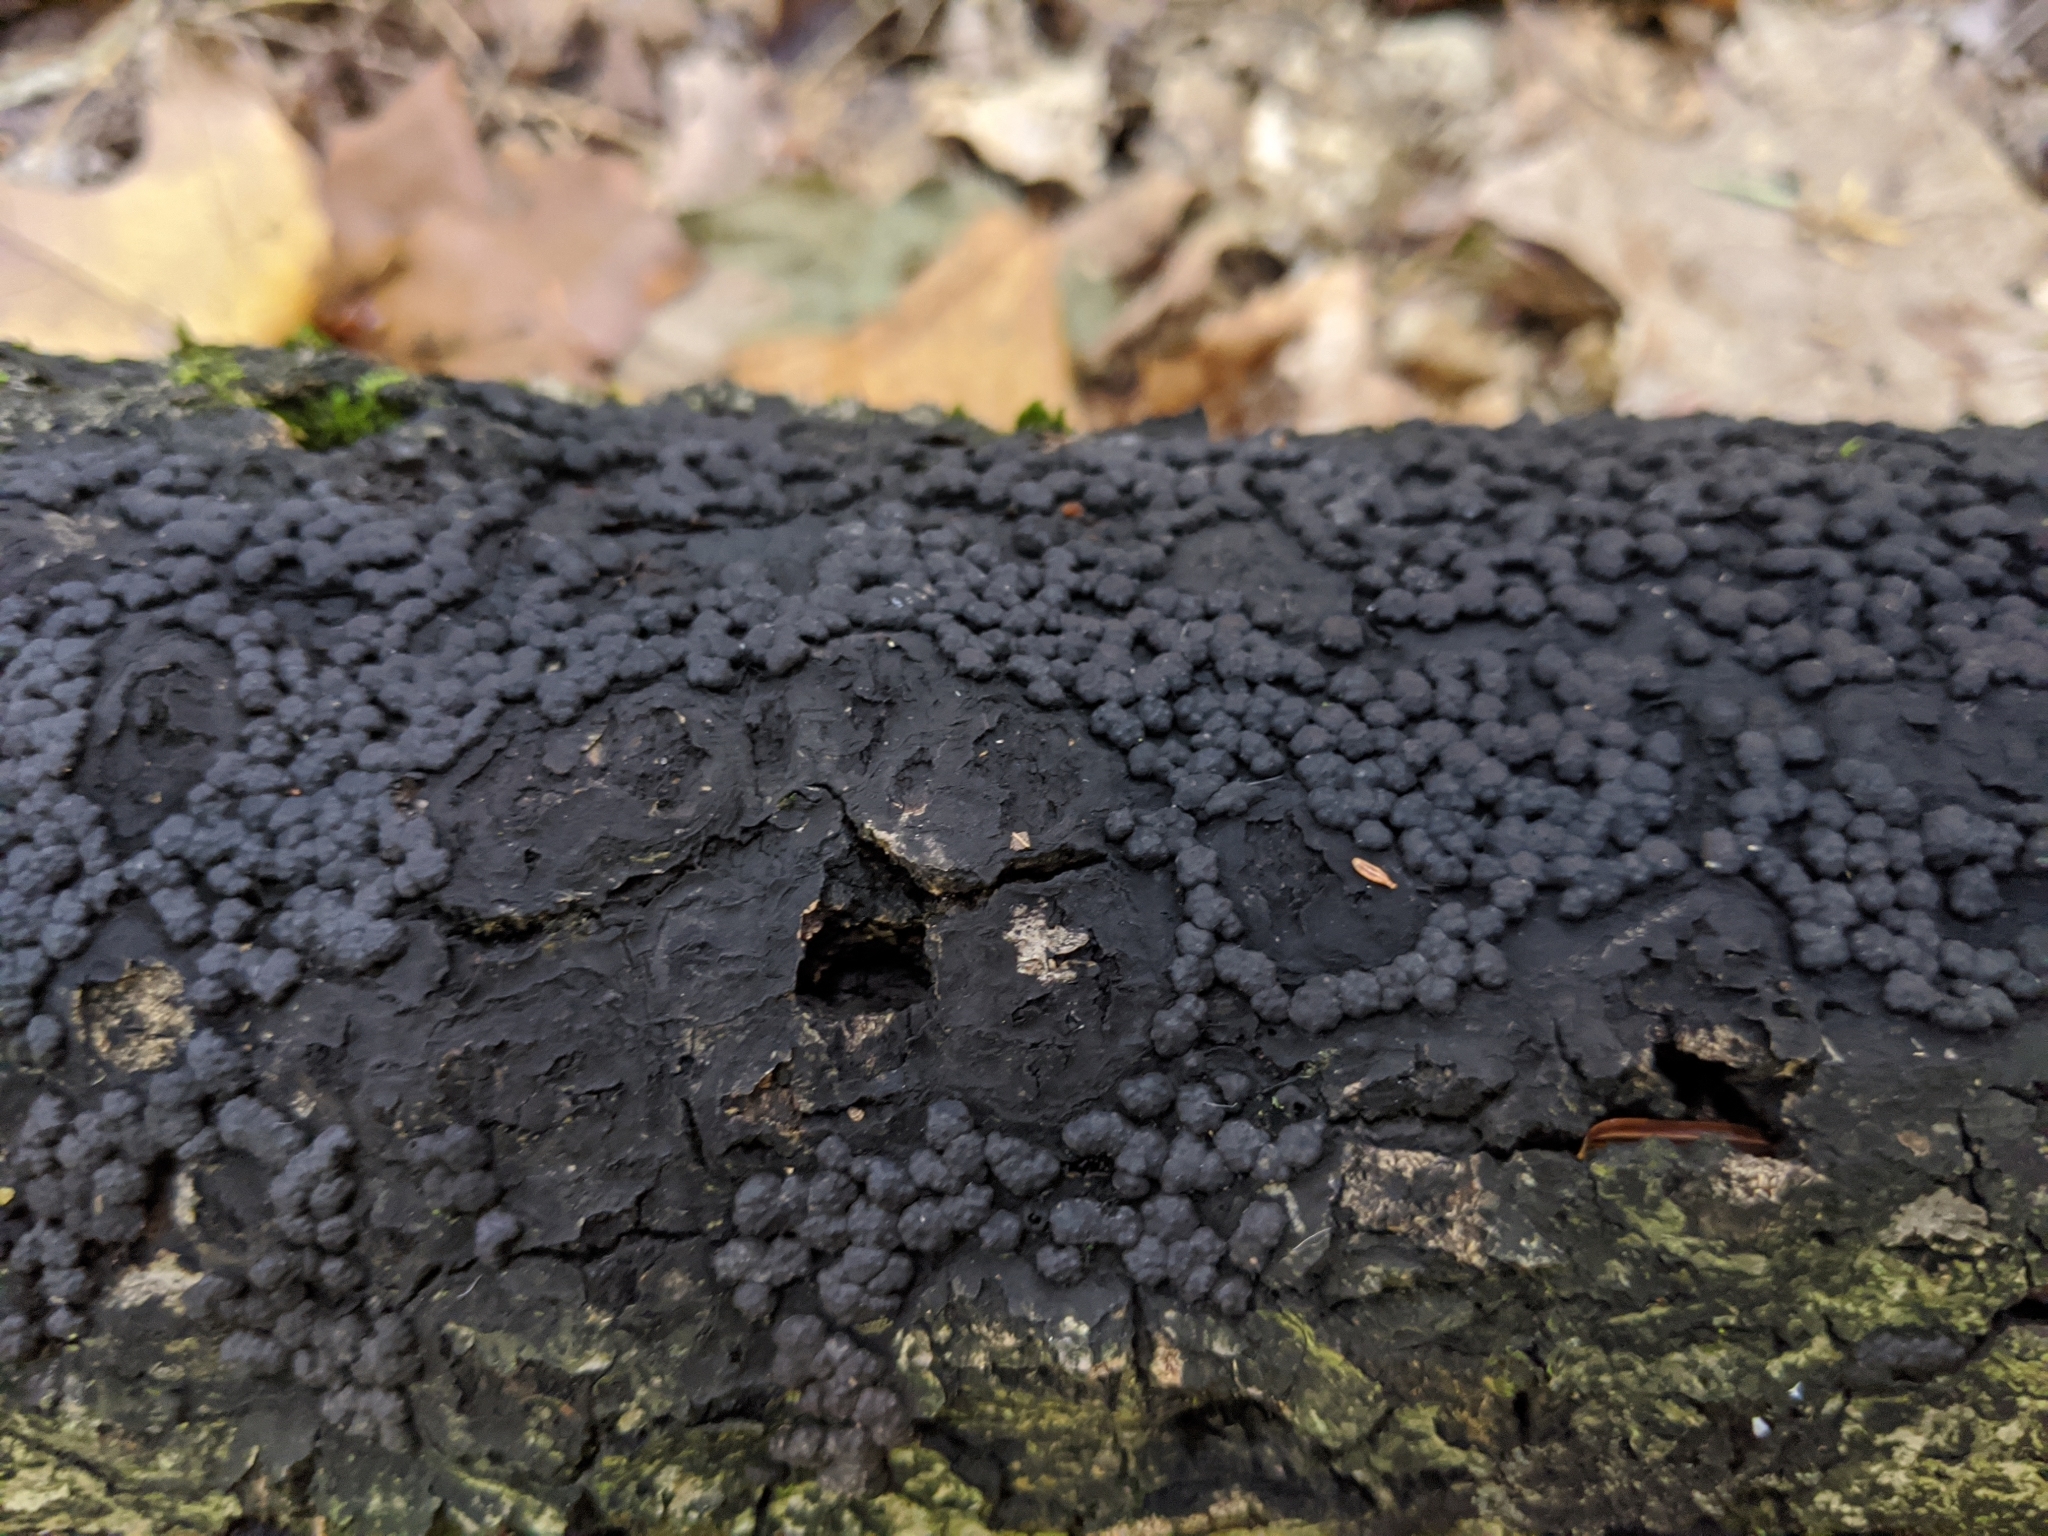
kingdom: Fungi
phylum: Ascomycota
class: Sordariomycetes
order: Xylariales
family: Hypoxylaceae
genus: Jackrogersella
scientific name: Jackrogersella cohaerens
